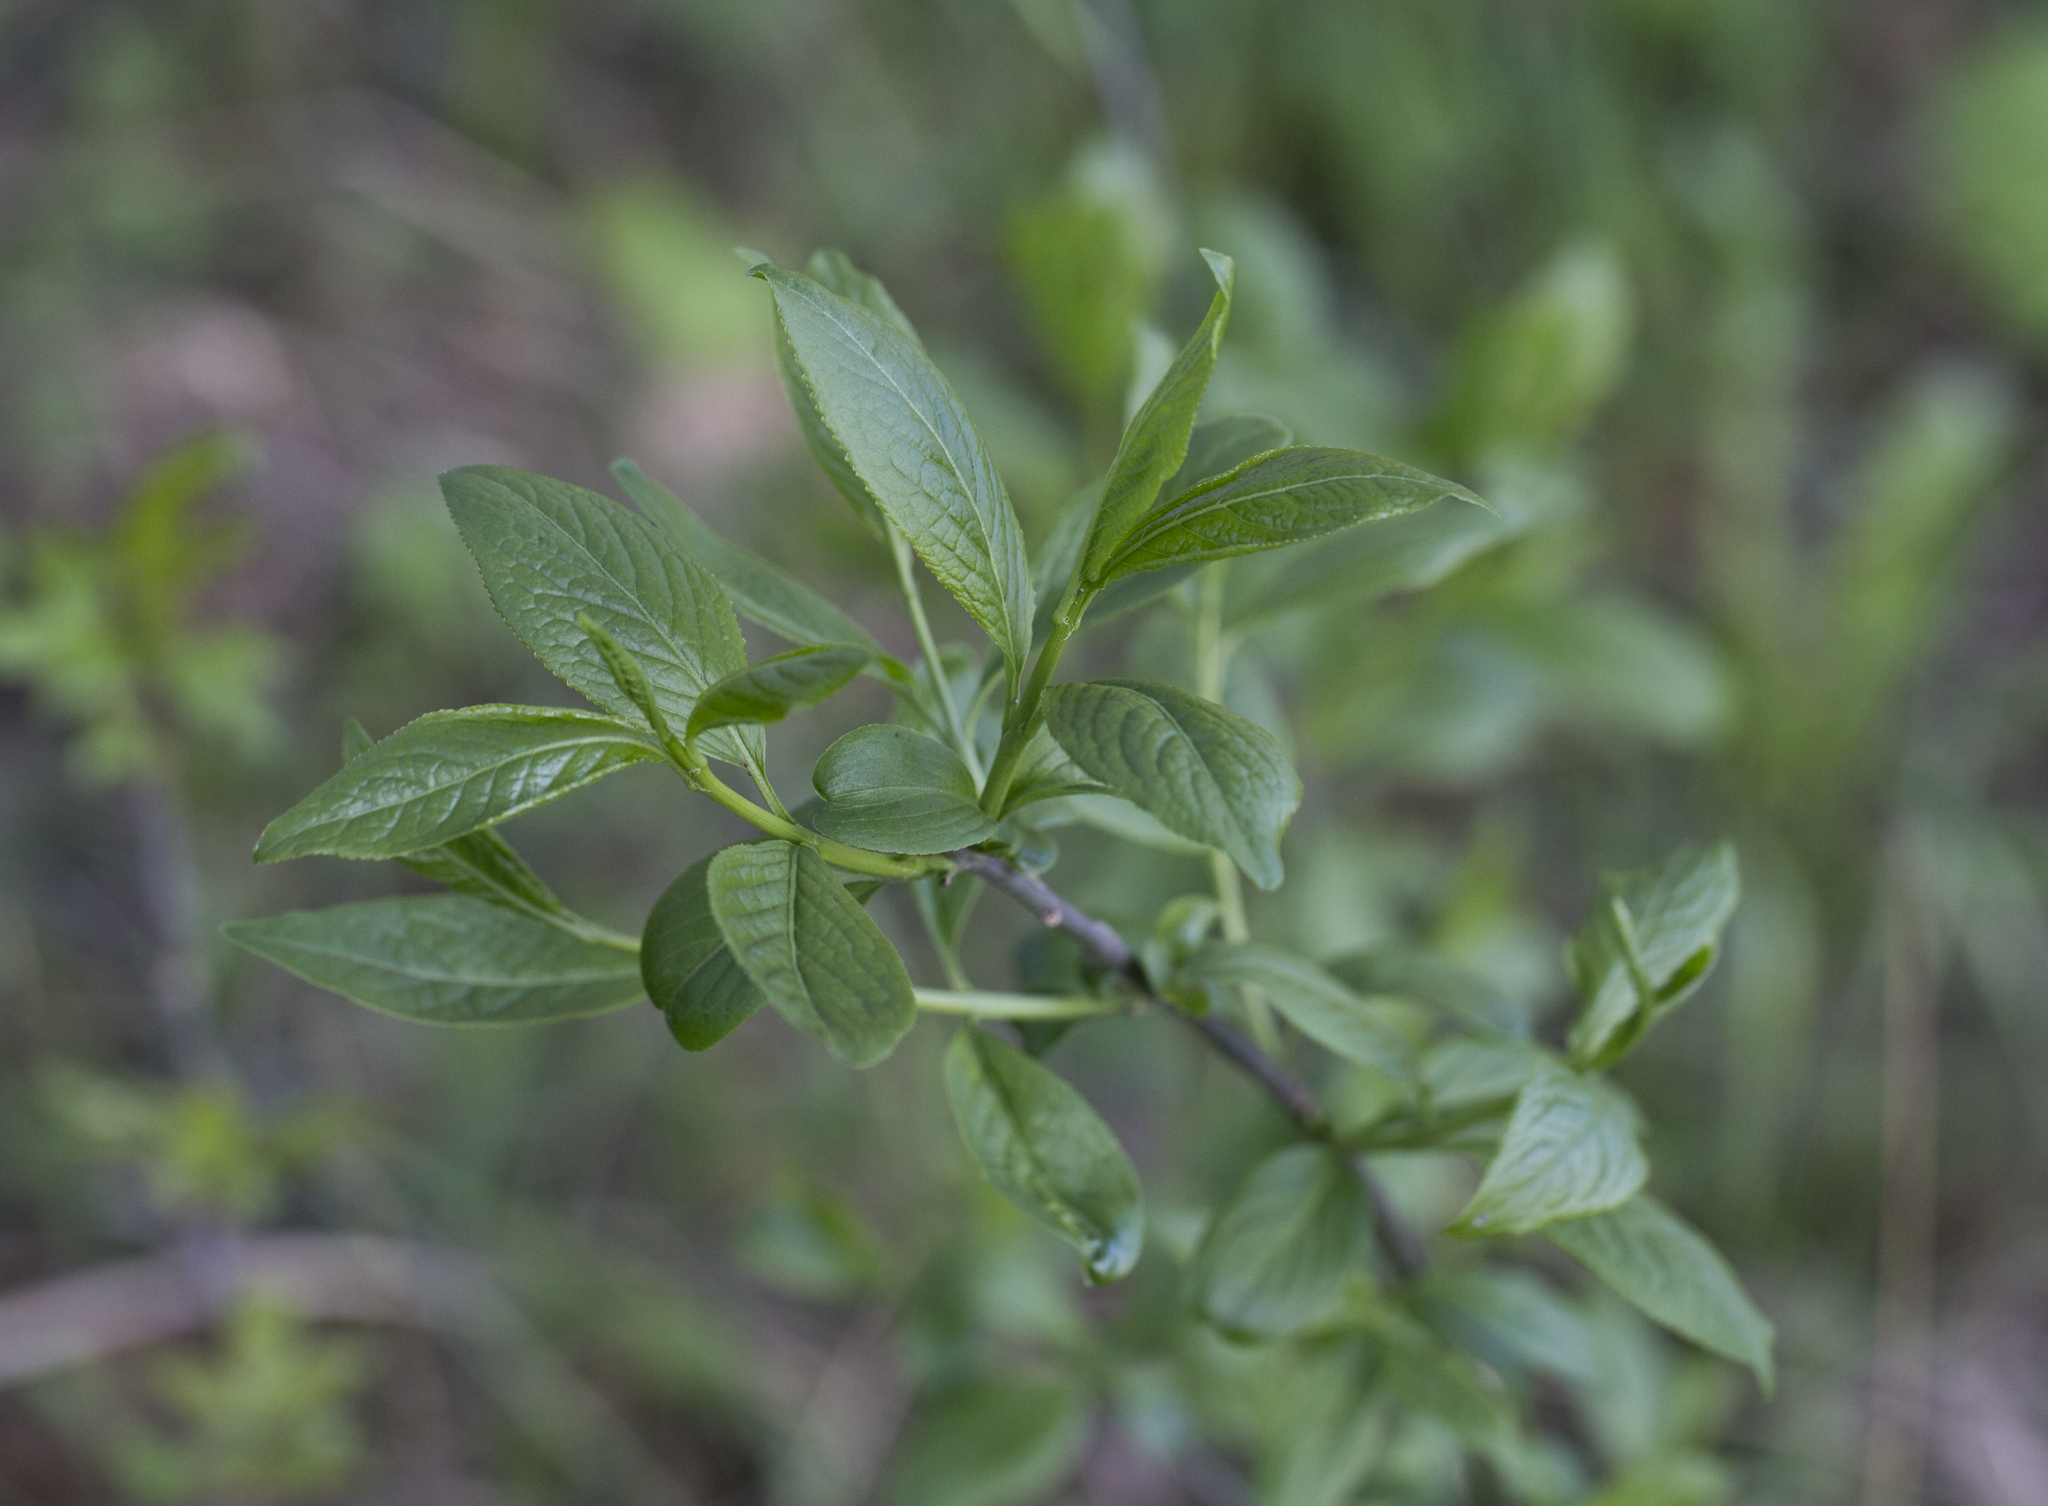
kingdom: Plantae
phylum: Tracheophyta
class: Magnoliopsida
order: Celastrales
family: Celastraceae
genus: Euonymus
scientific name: Euonymus europaeus
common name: Spindle
